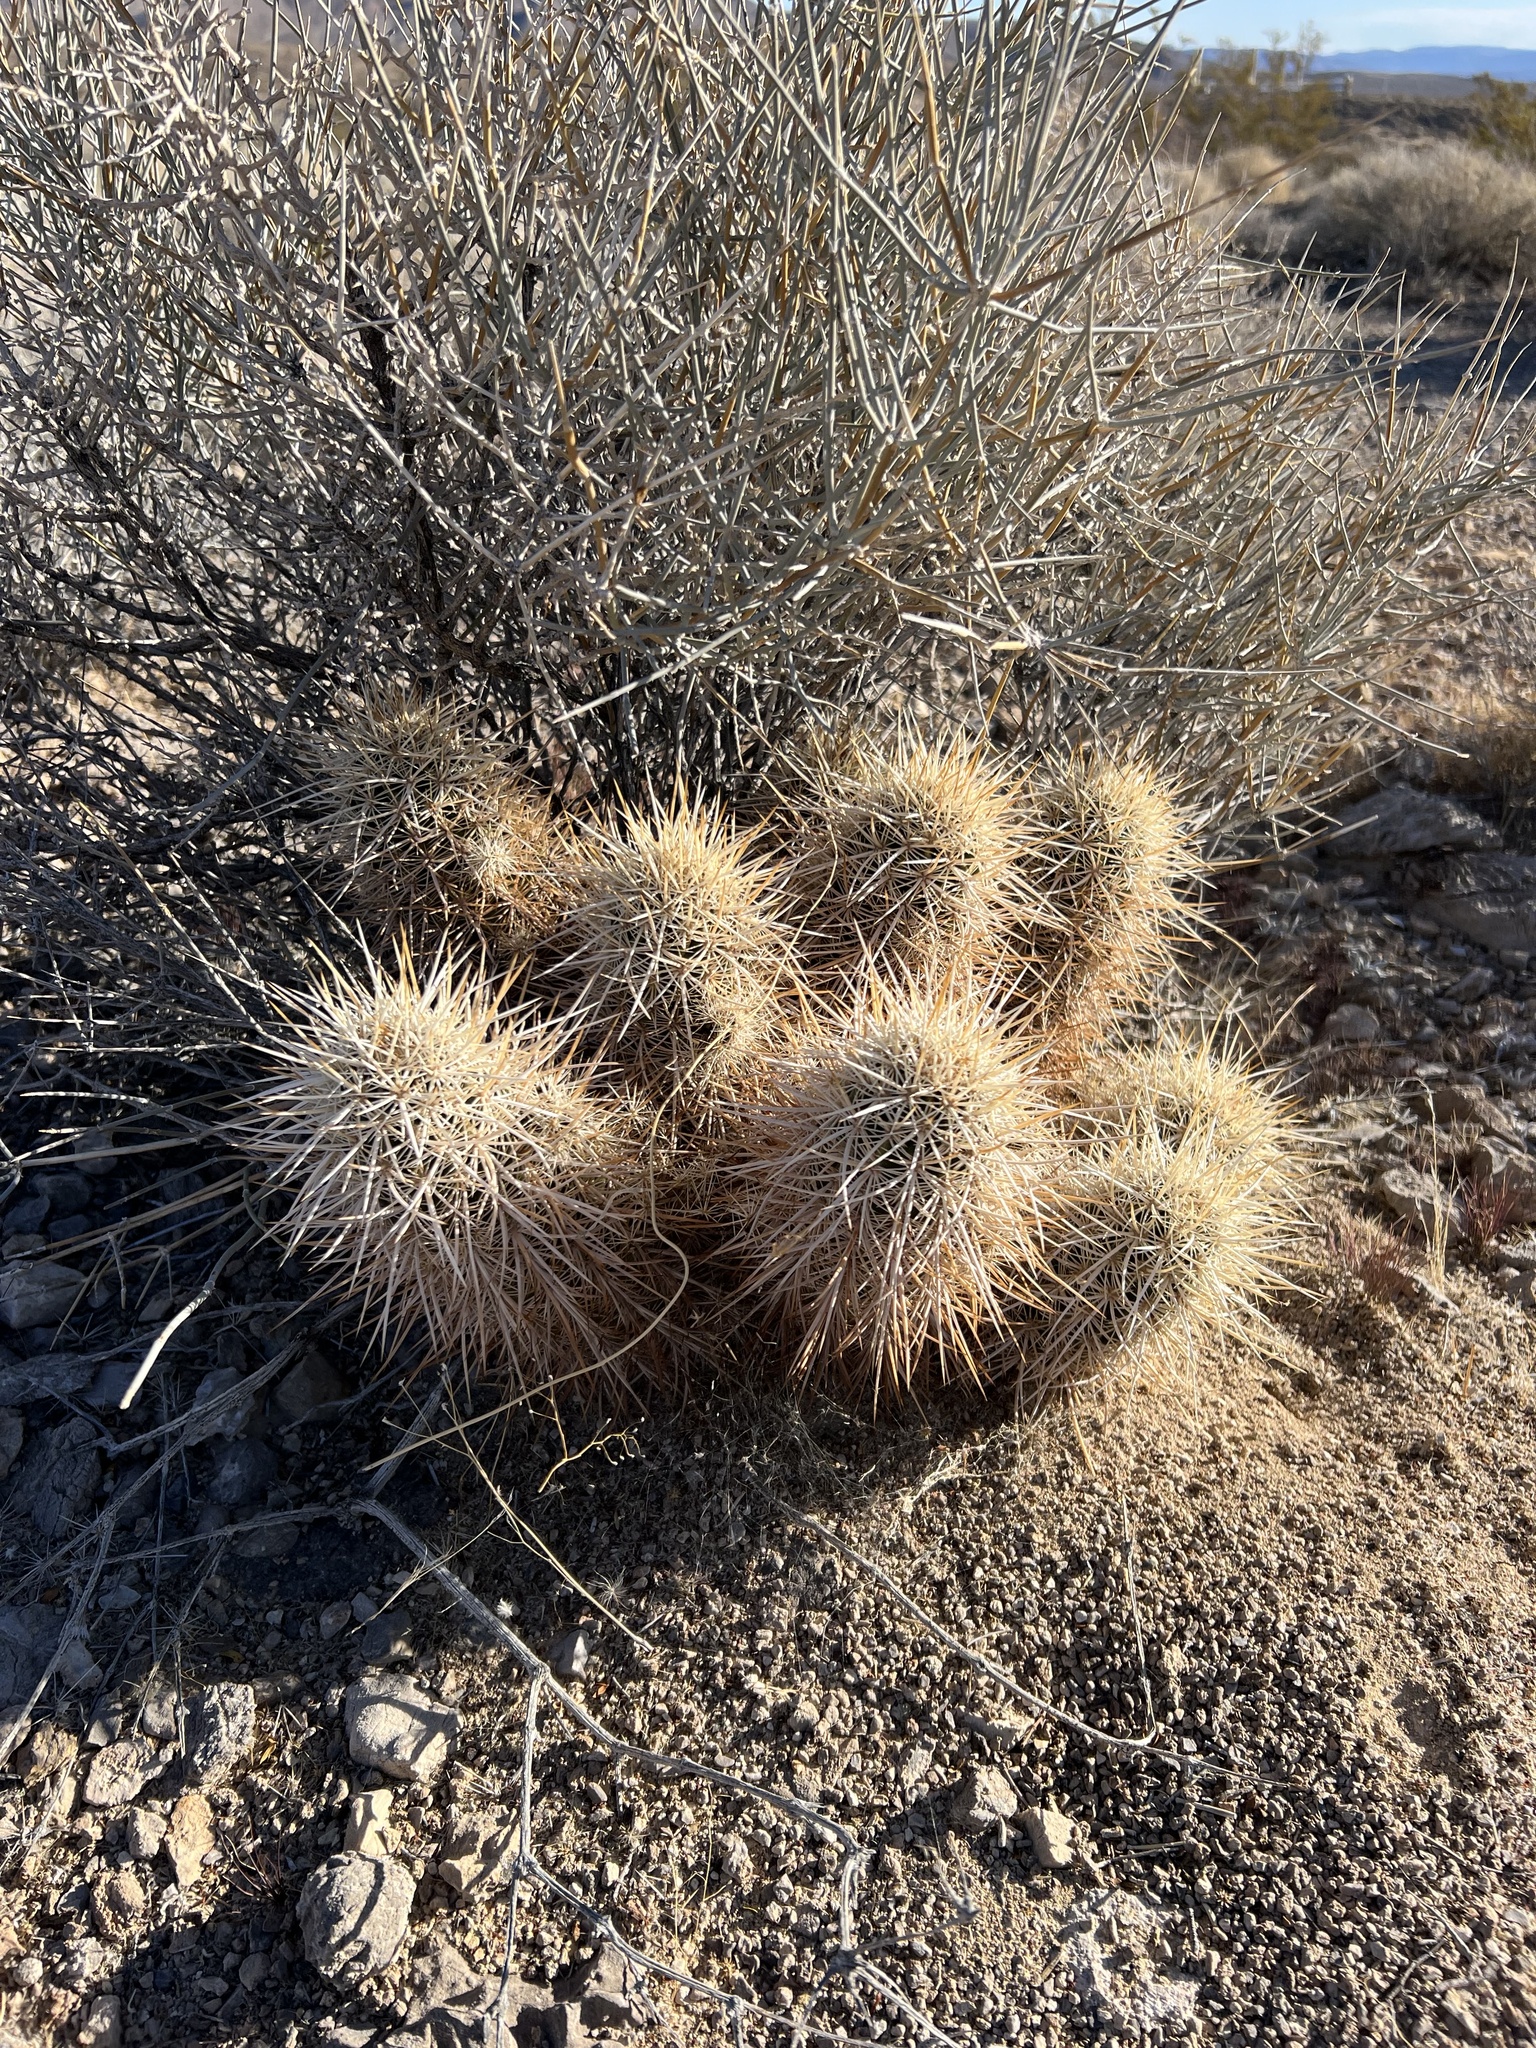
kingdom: Plantae
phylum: Tracheophyta
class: Magnoliopsida
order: Caryophyllales
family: Cactaceae
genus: Echinocereus
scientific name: Echinocereus engelmannii
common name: Engelmann's hedgehog cactus
